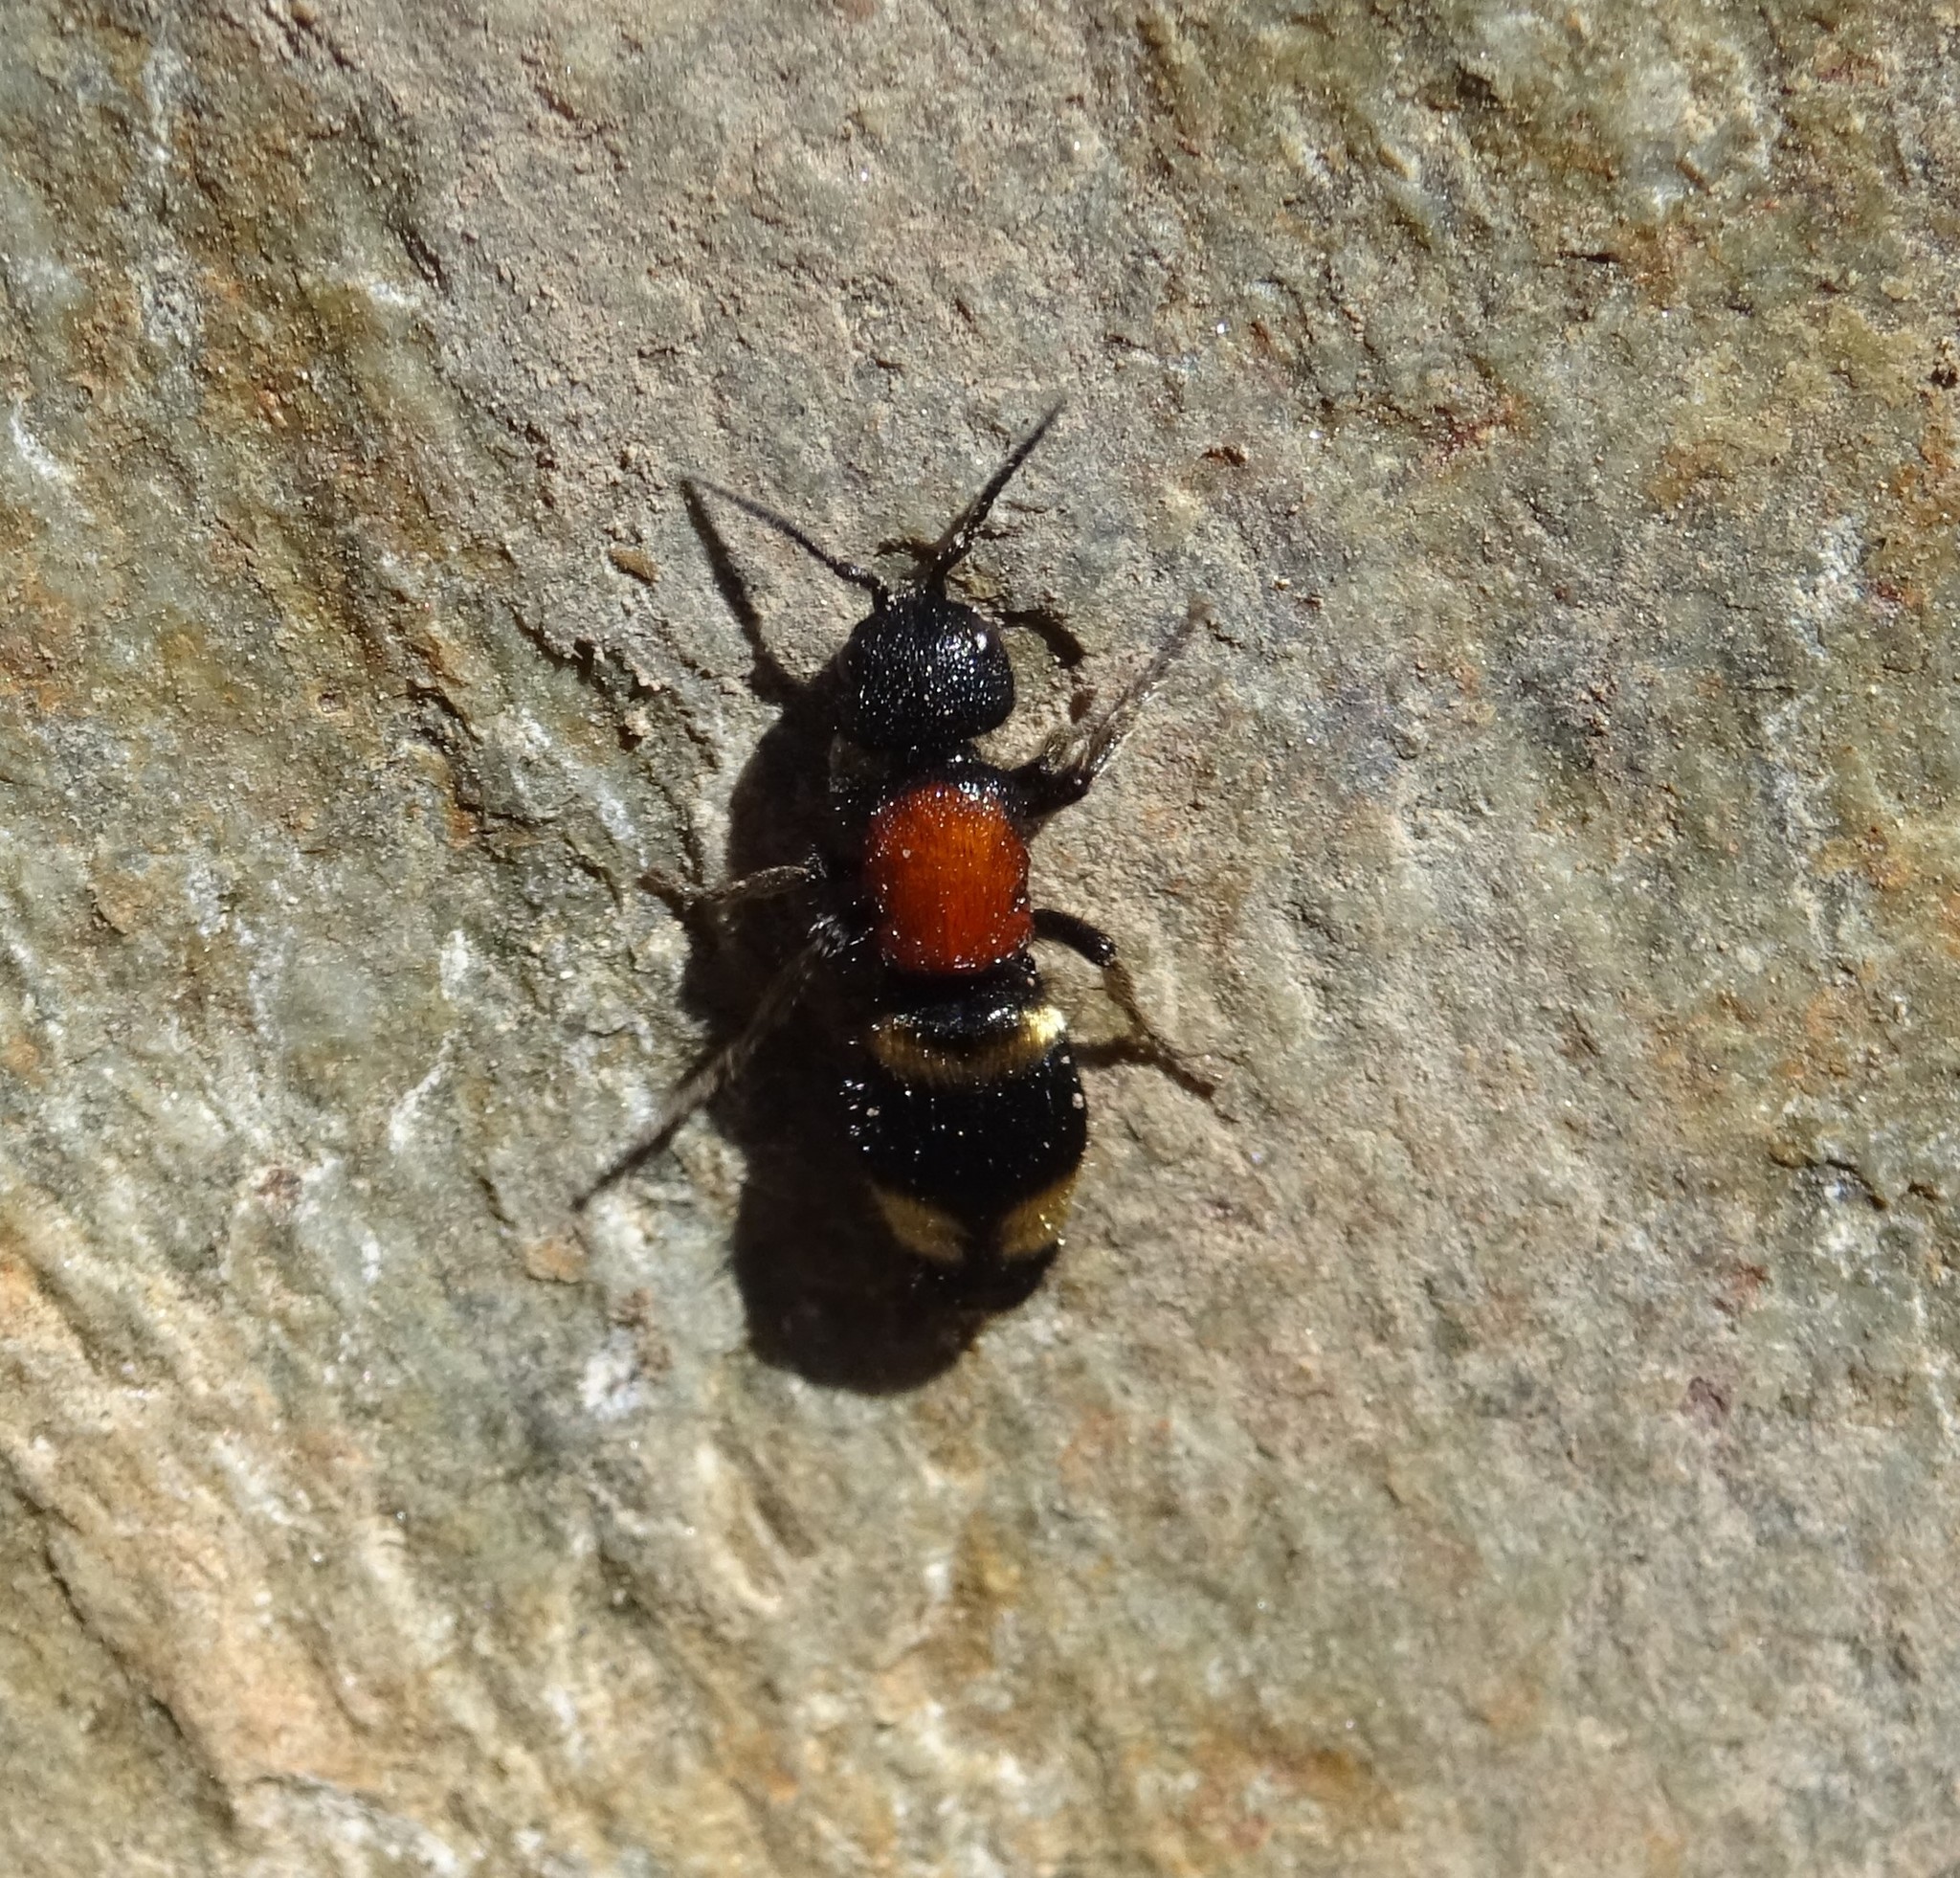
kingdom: Animalia
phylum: Arthropoda
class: Insecta
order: Hymenoptera
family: Mutillidae
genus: Mutilla
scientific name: Mutilla europaea
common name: Large velvet ant
